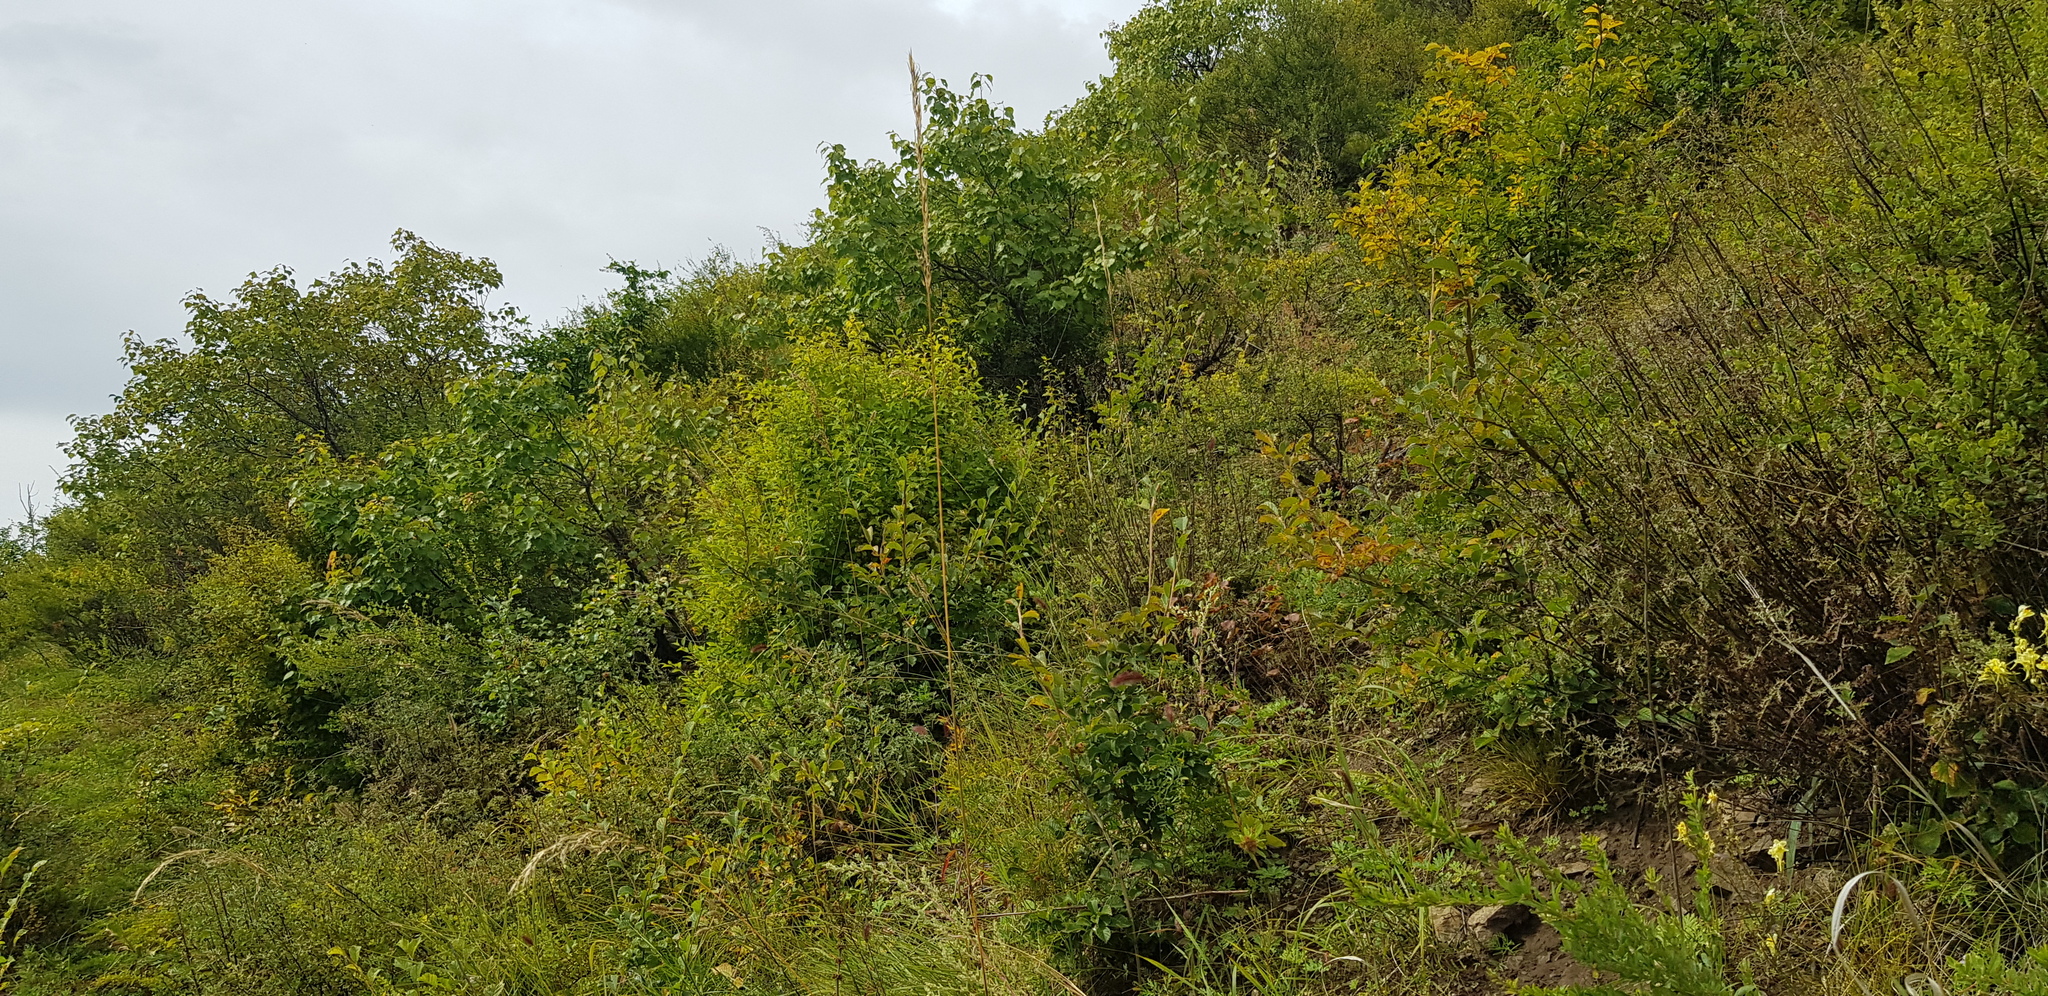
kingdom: Plantae
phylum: Tracheophyta
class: Magnoliopsida
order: Rosales
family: Rosaceae
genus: Prunus
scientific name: Prunus padus
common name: Bird cherry
